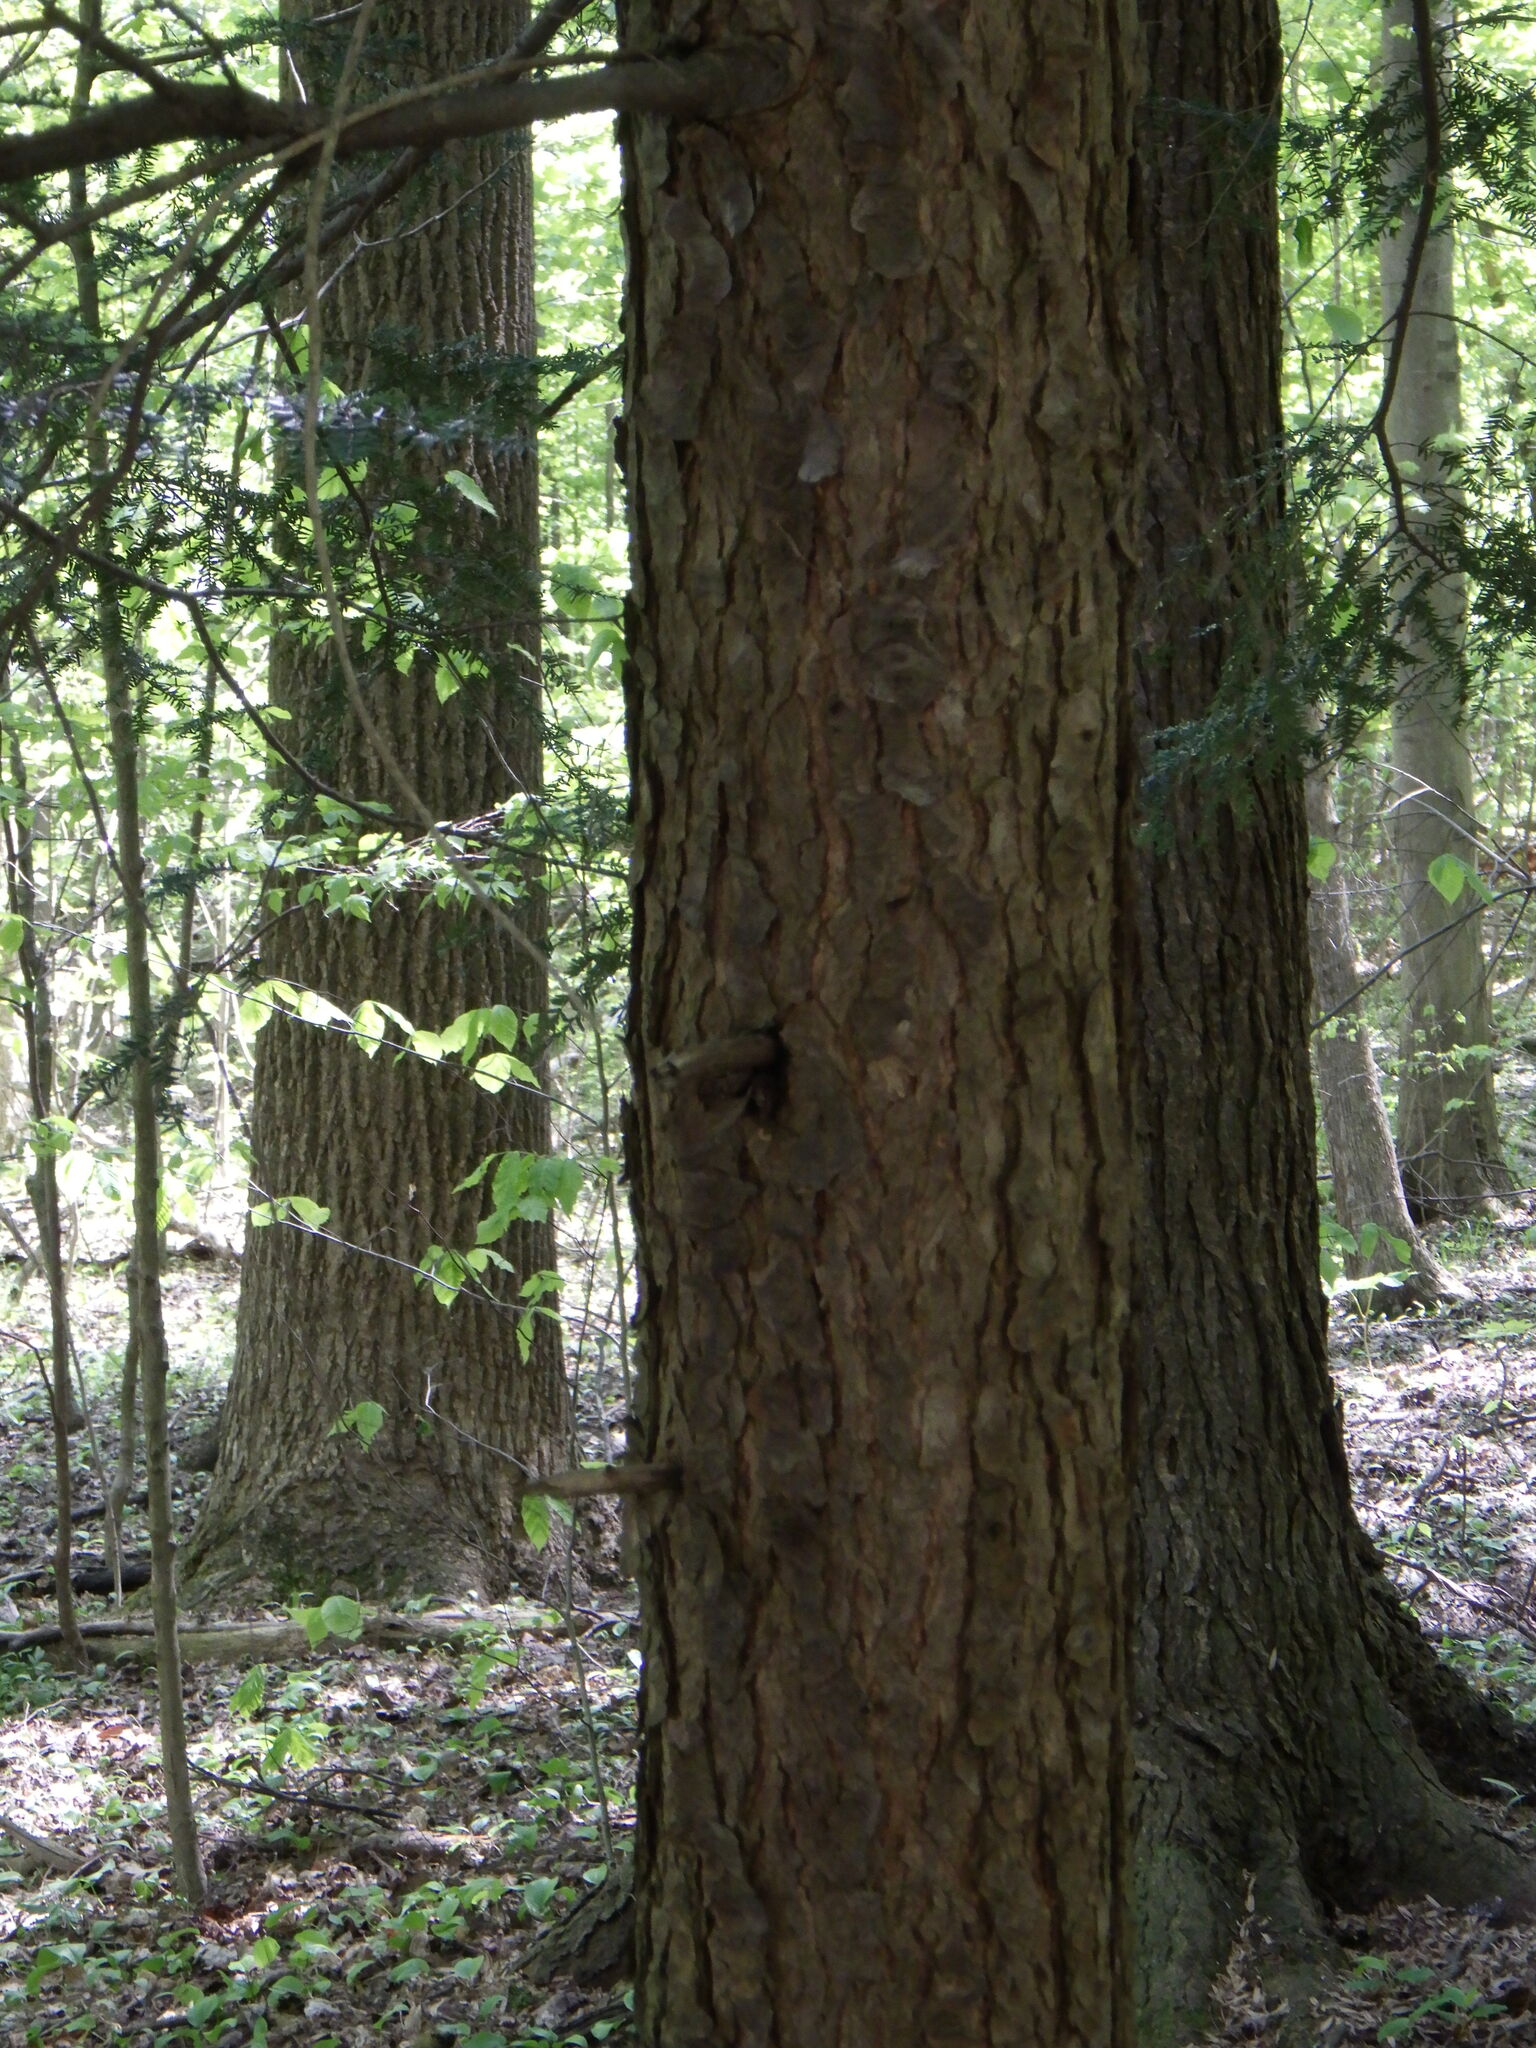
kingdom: Plantae
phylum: Tracheophyta
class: Pinopsida
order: Pinales
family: Pinaceae
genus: Tsuga
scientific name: Tsuga canadensis
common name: Eastern hemlock
